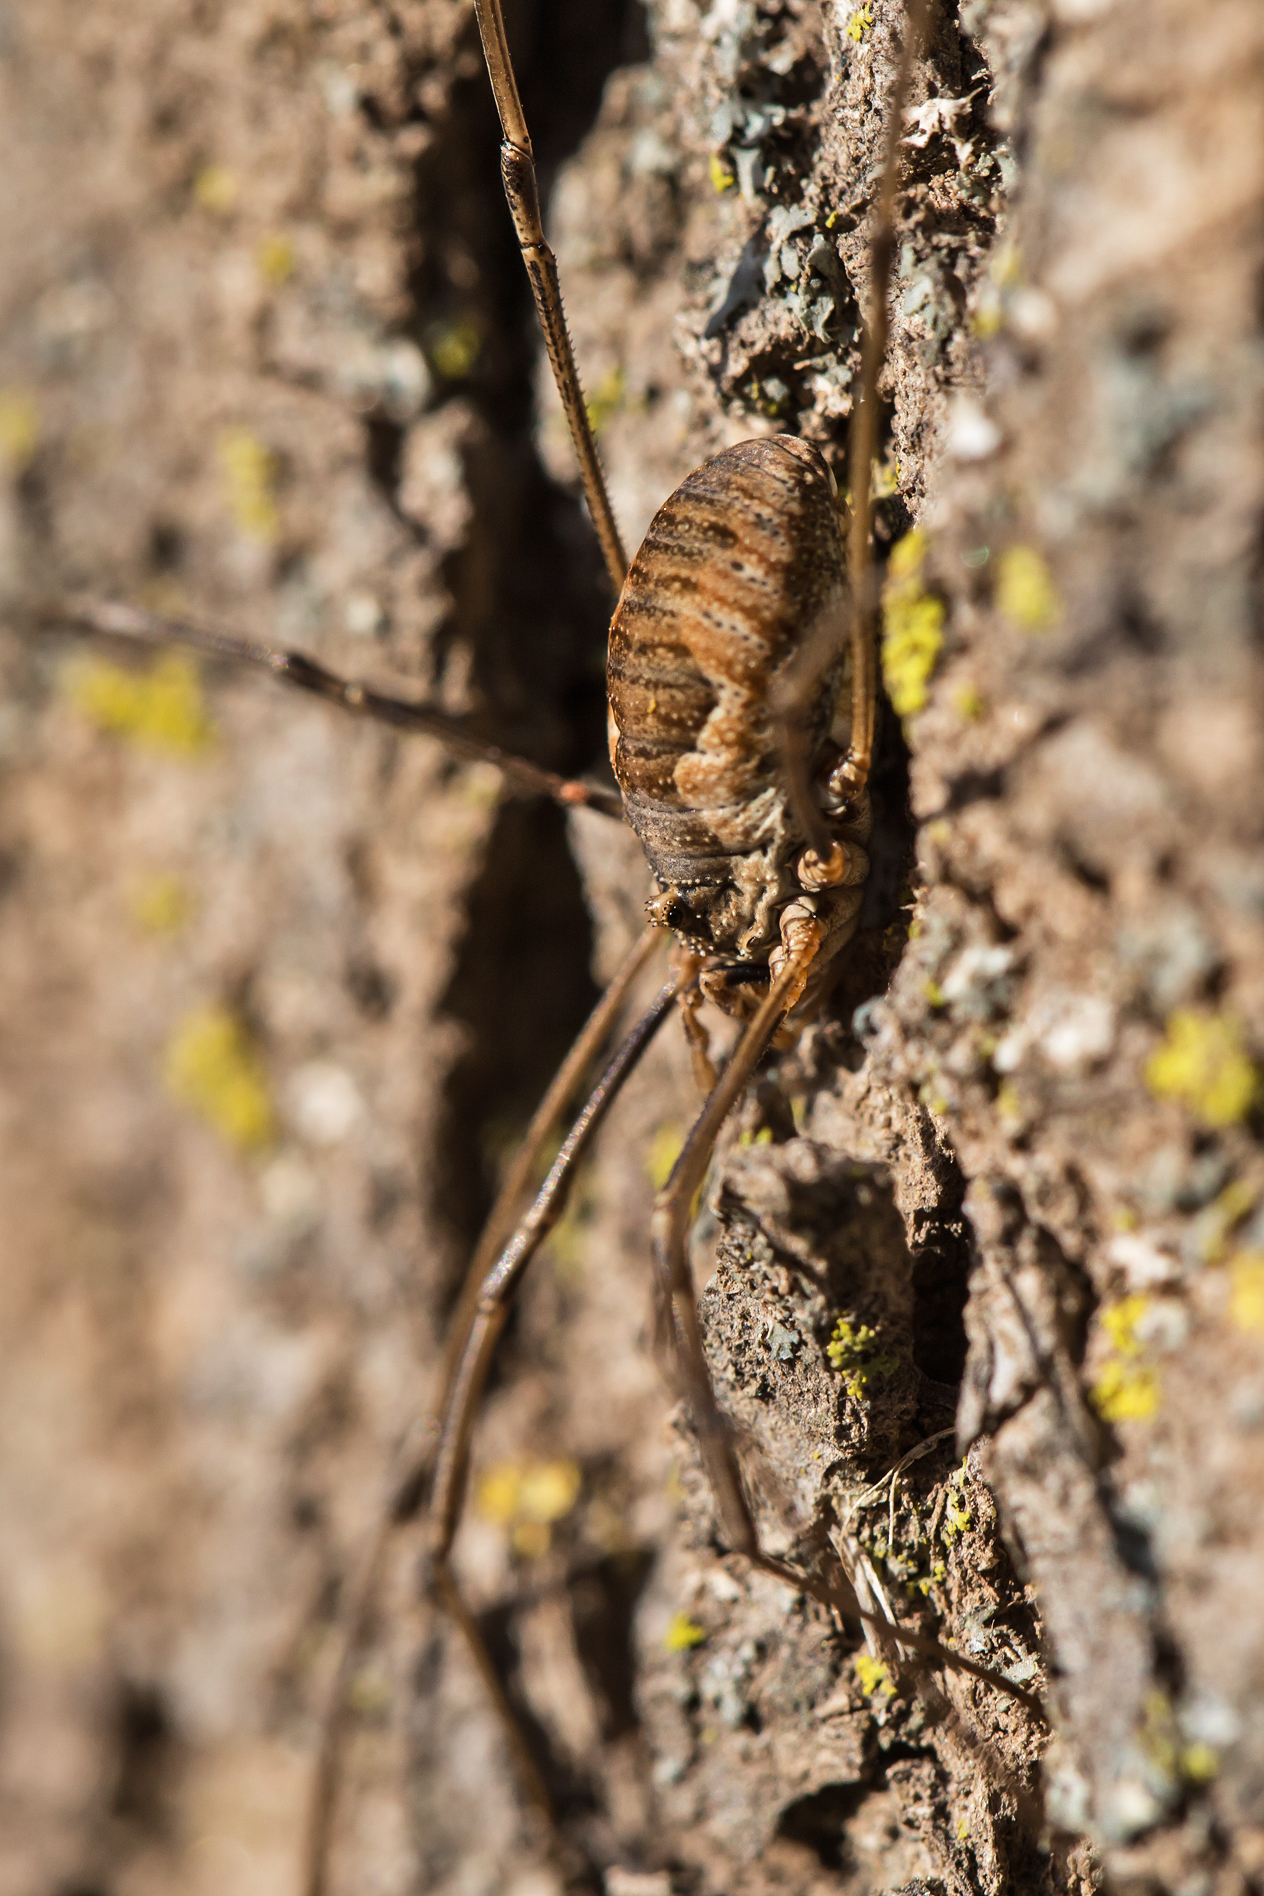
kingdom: Animalia
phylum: Arthropoda
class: Arachnida
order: Opiliones
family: Phalangiidae
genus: Phalangium
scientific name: Phalangium opilio
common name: Daddy longleg
